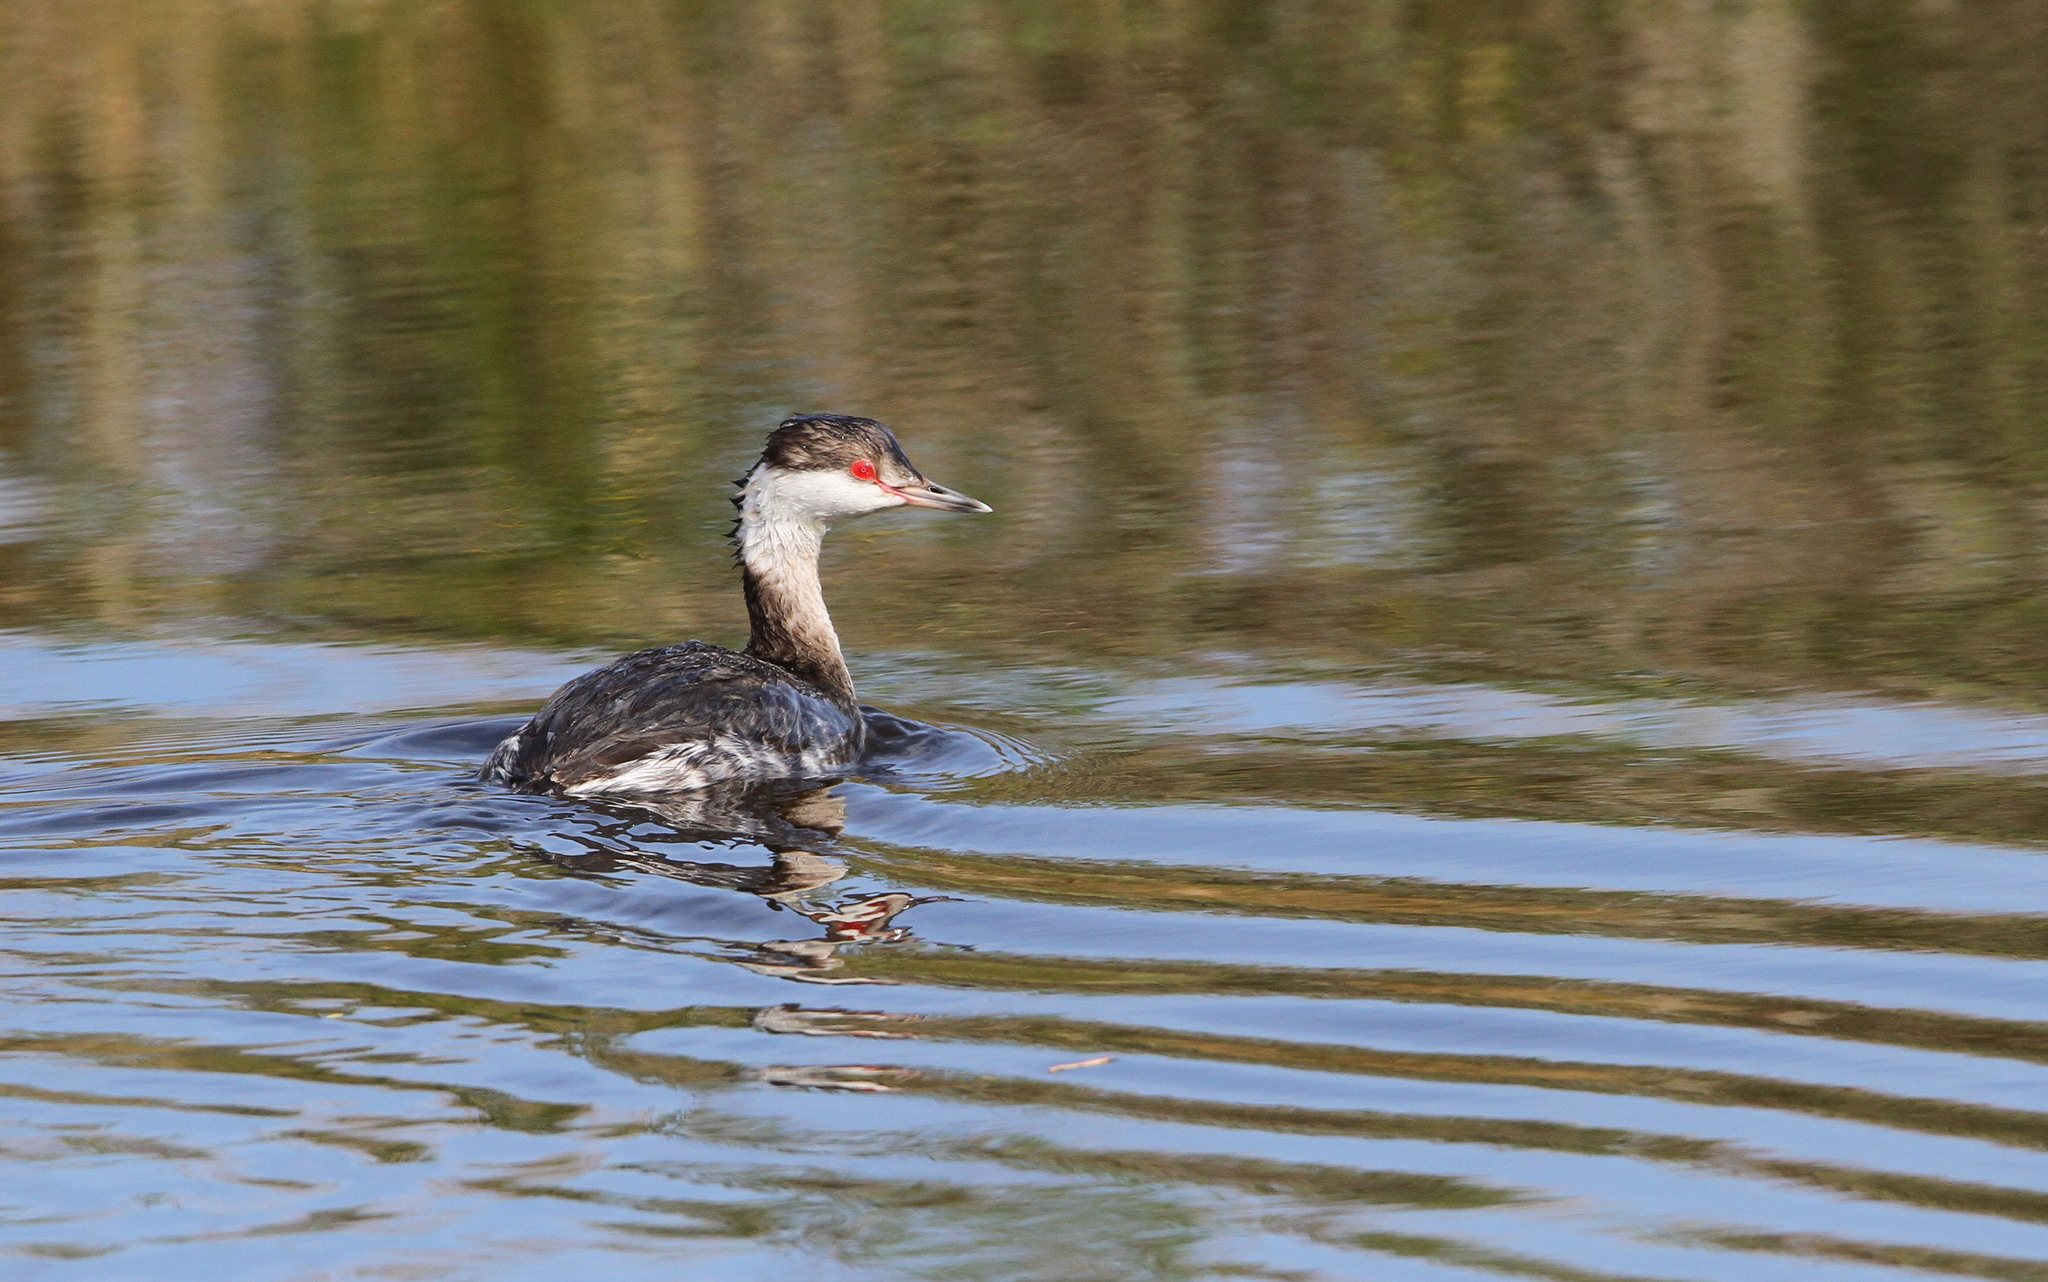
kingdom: Animalia
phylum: Chordata
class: Aves
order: Podicipediformes
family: Podicipedidae
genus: Podiceps
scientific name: Podiceps auritus
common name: Horned grebe
